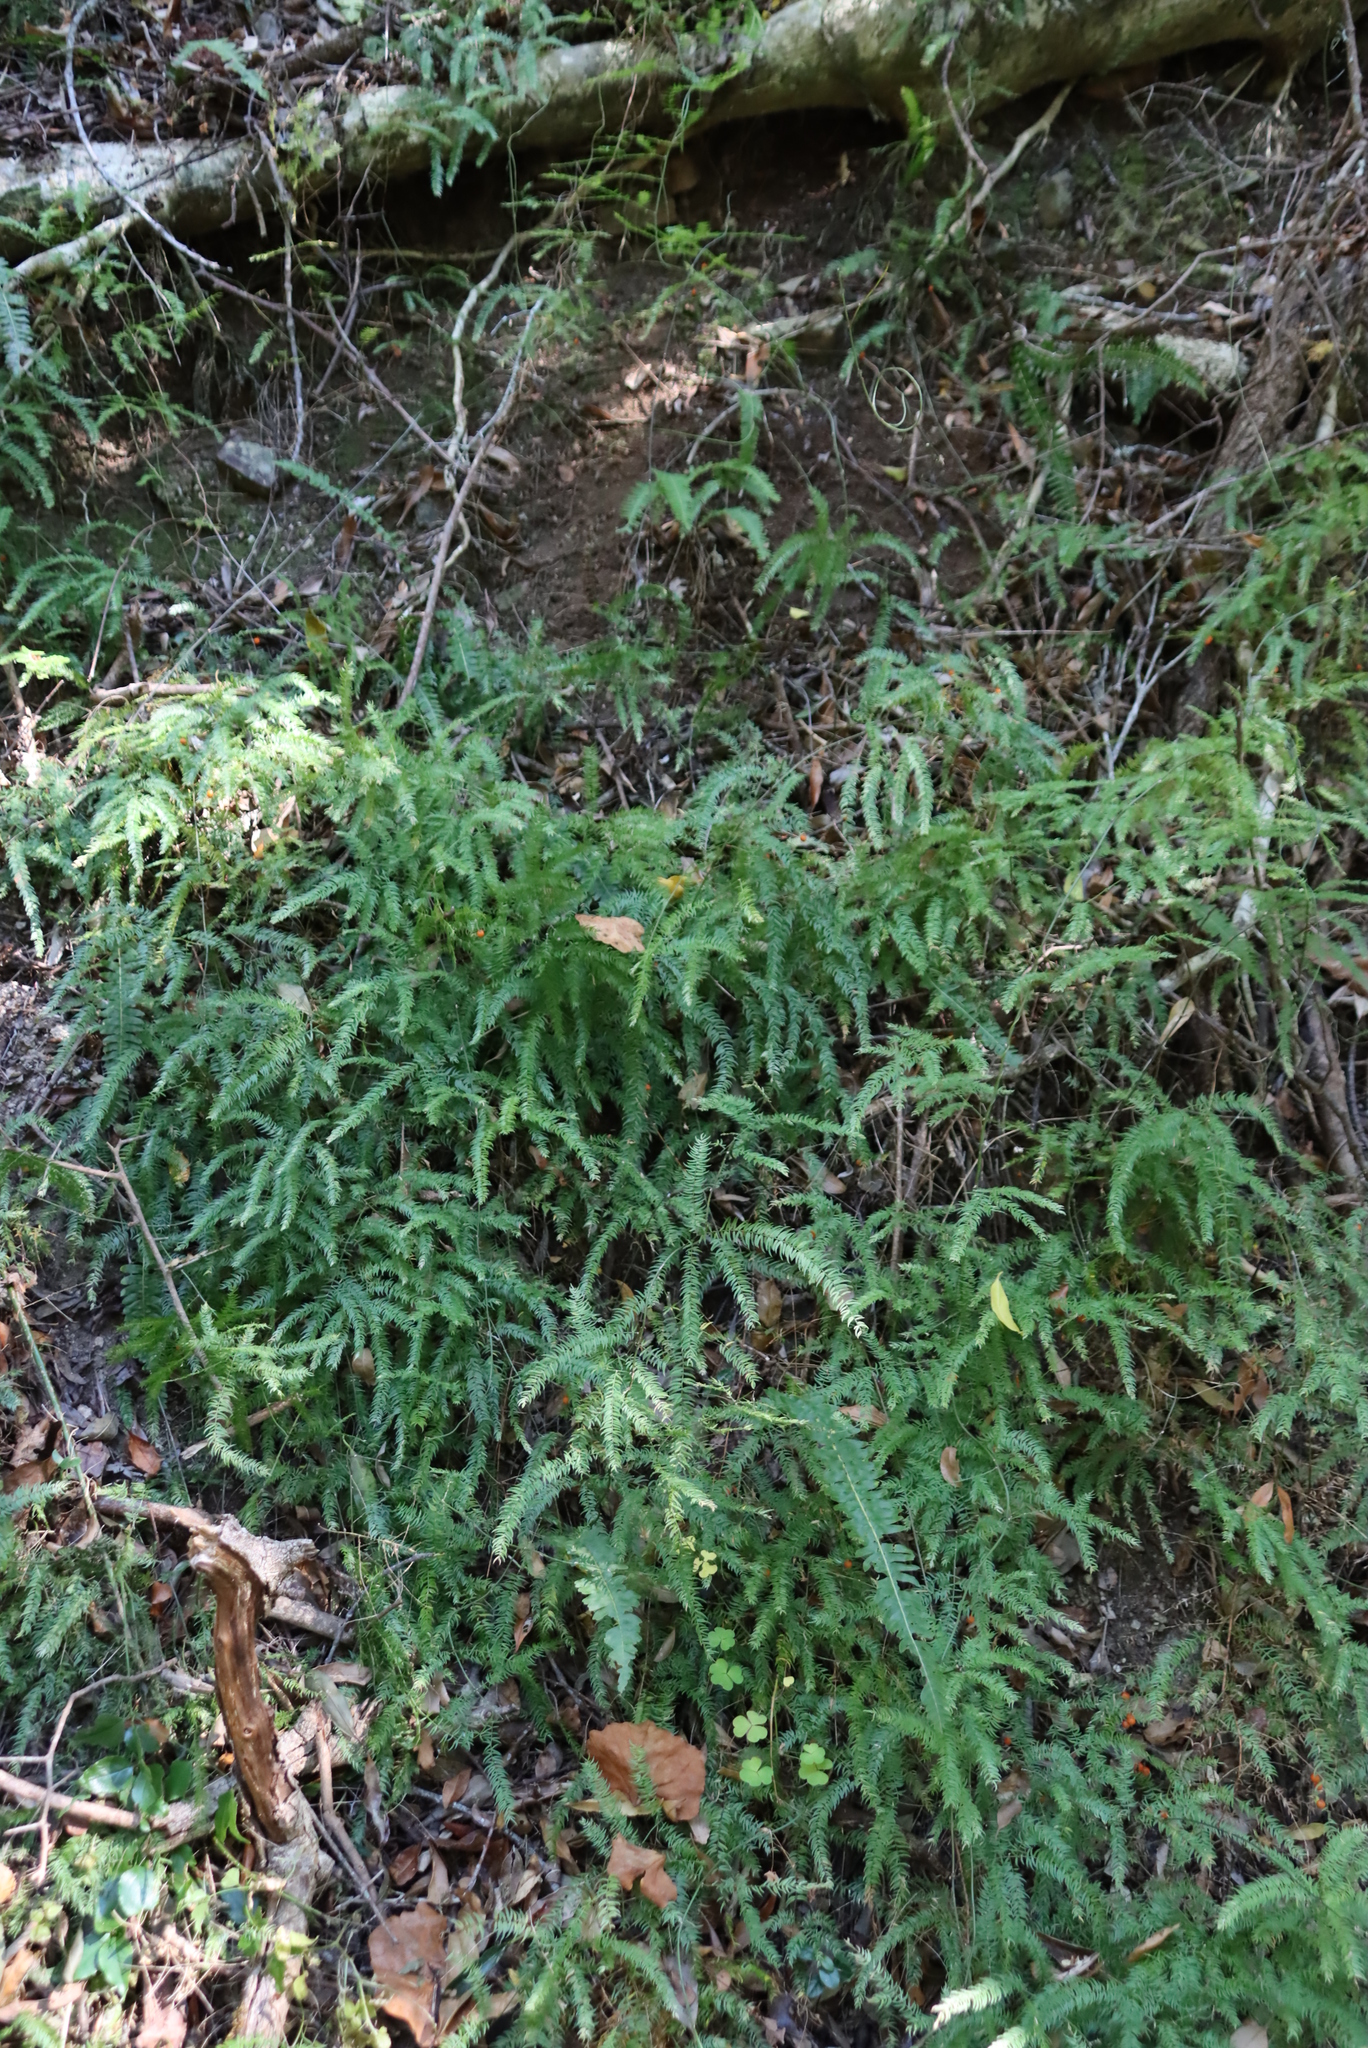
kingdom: Plantae
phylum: Tracheophyta
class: Liliopsida
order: Asparagales
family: Asparagaceae
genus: Asparagus
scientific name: Asparagus scandens
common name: Asparagus-fern
